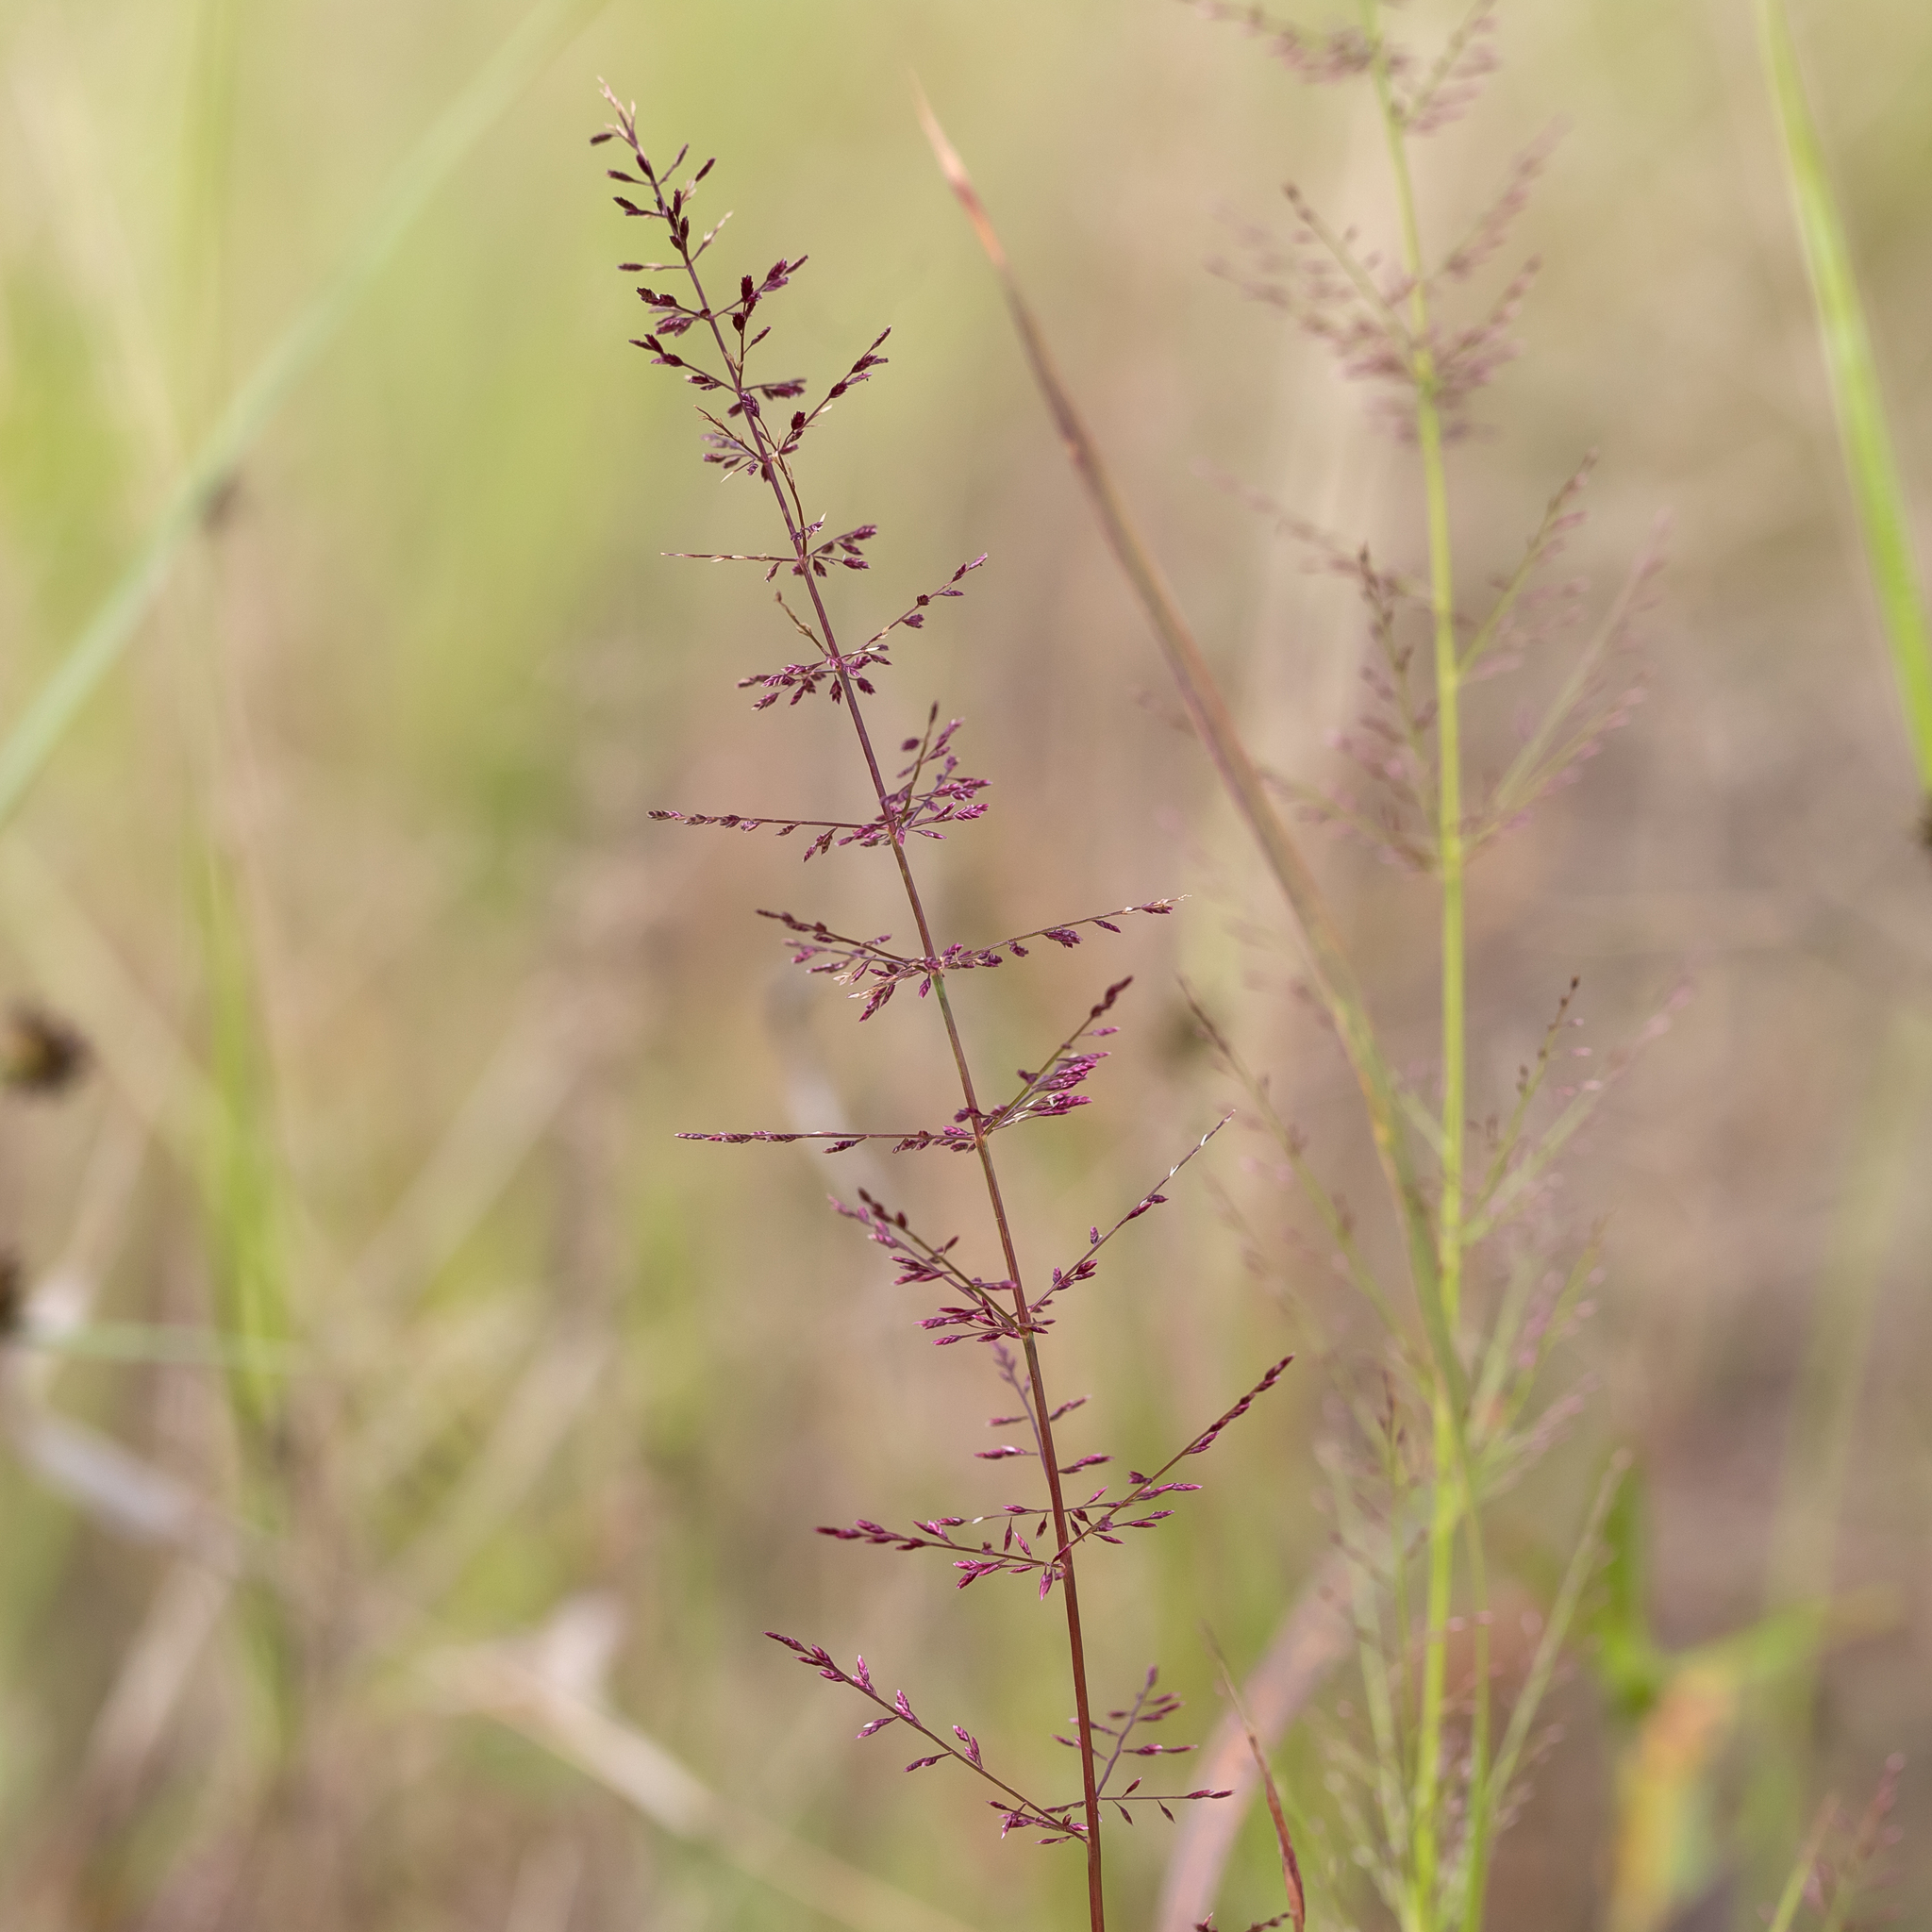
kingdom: Plantae
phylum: Tracheophyta
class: Liliopsida
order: Poales
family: Poaceae
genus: Eragrostis
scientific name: Eragrostis tenellula
